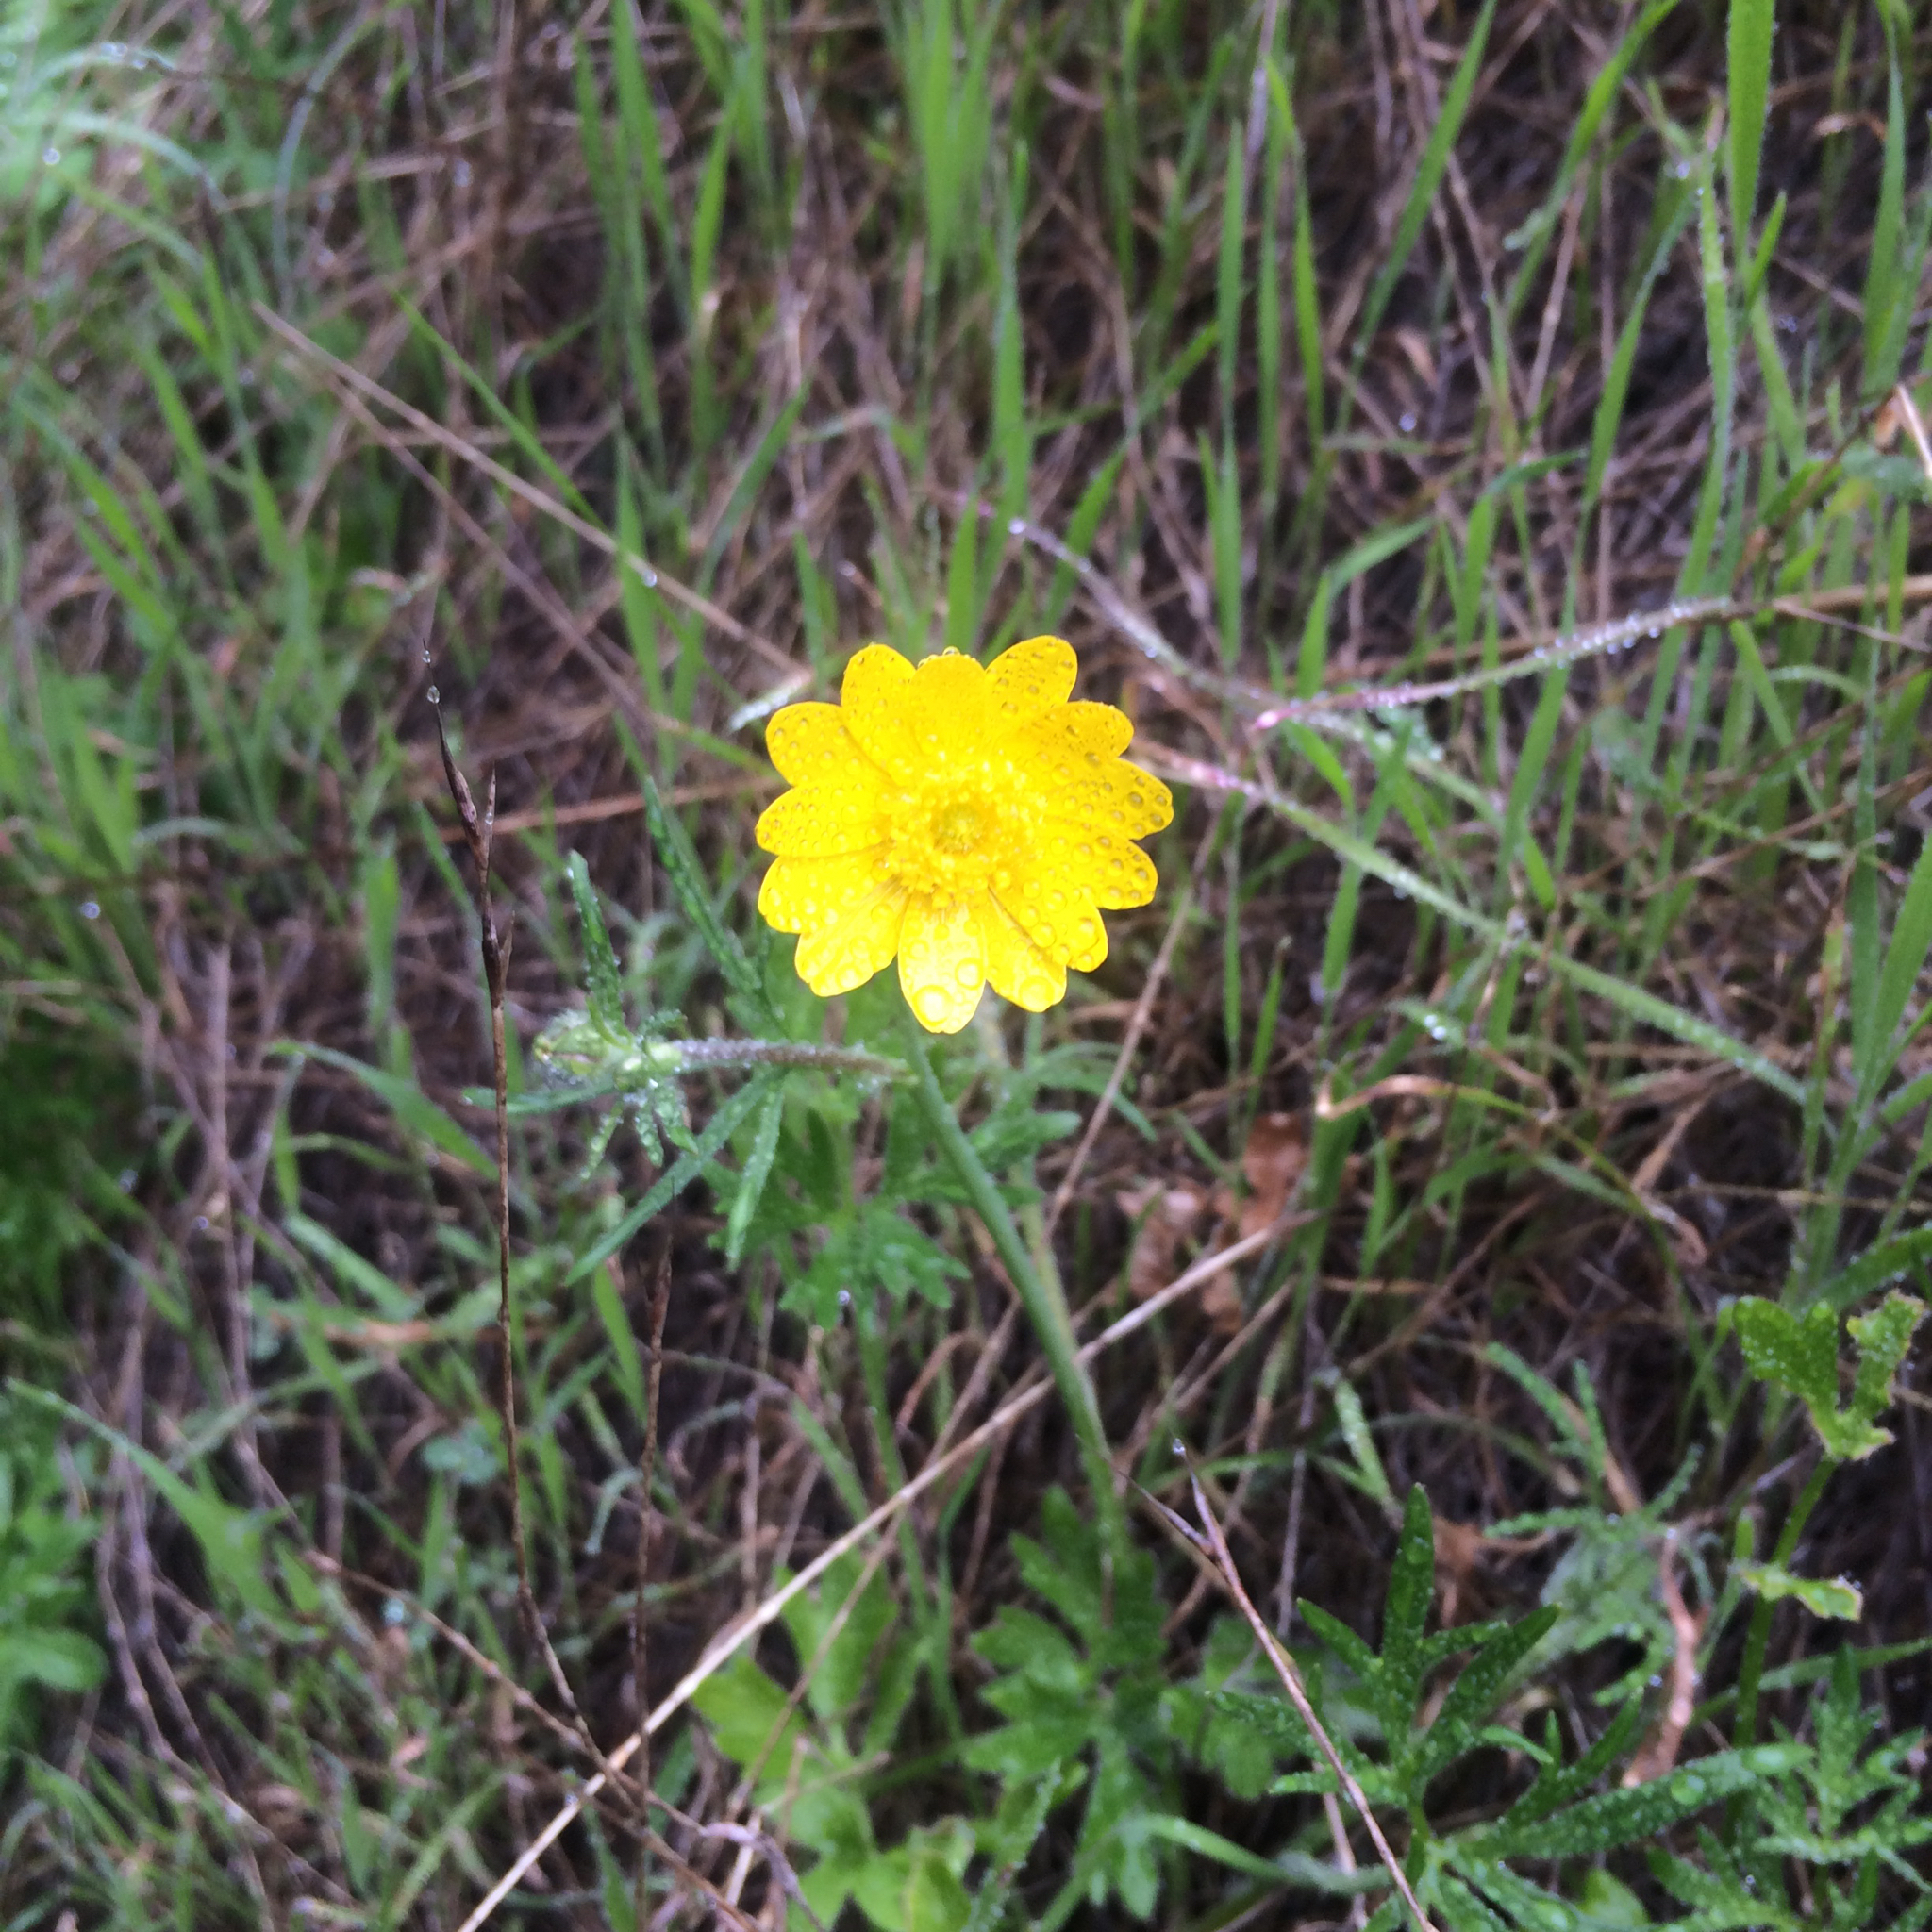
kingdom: Plantae
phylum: Tracheophyta
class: Magnoliopsida
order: Ranunculales
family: Ranunculaceae
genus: Ranunculus
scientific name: Ranunculus californicus
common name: California buttercup
